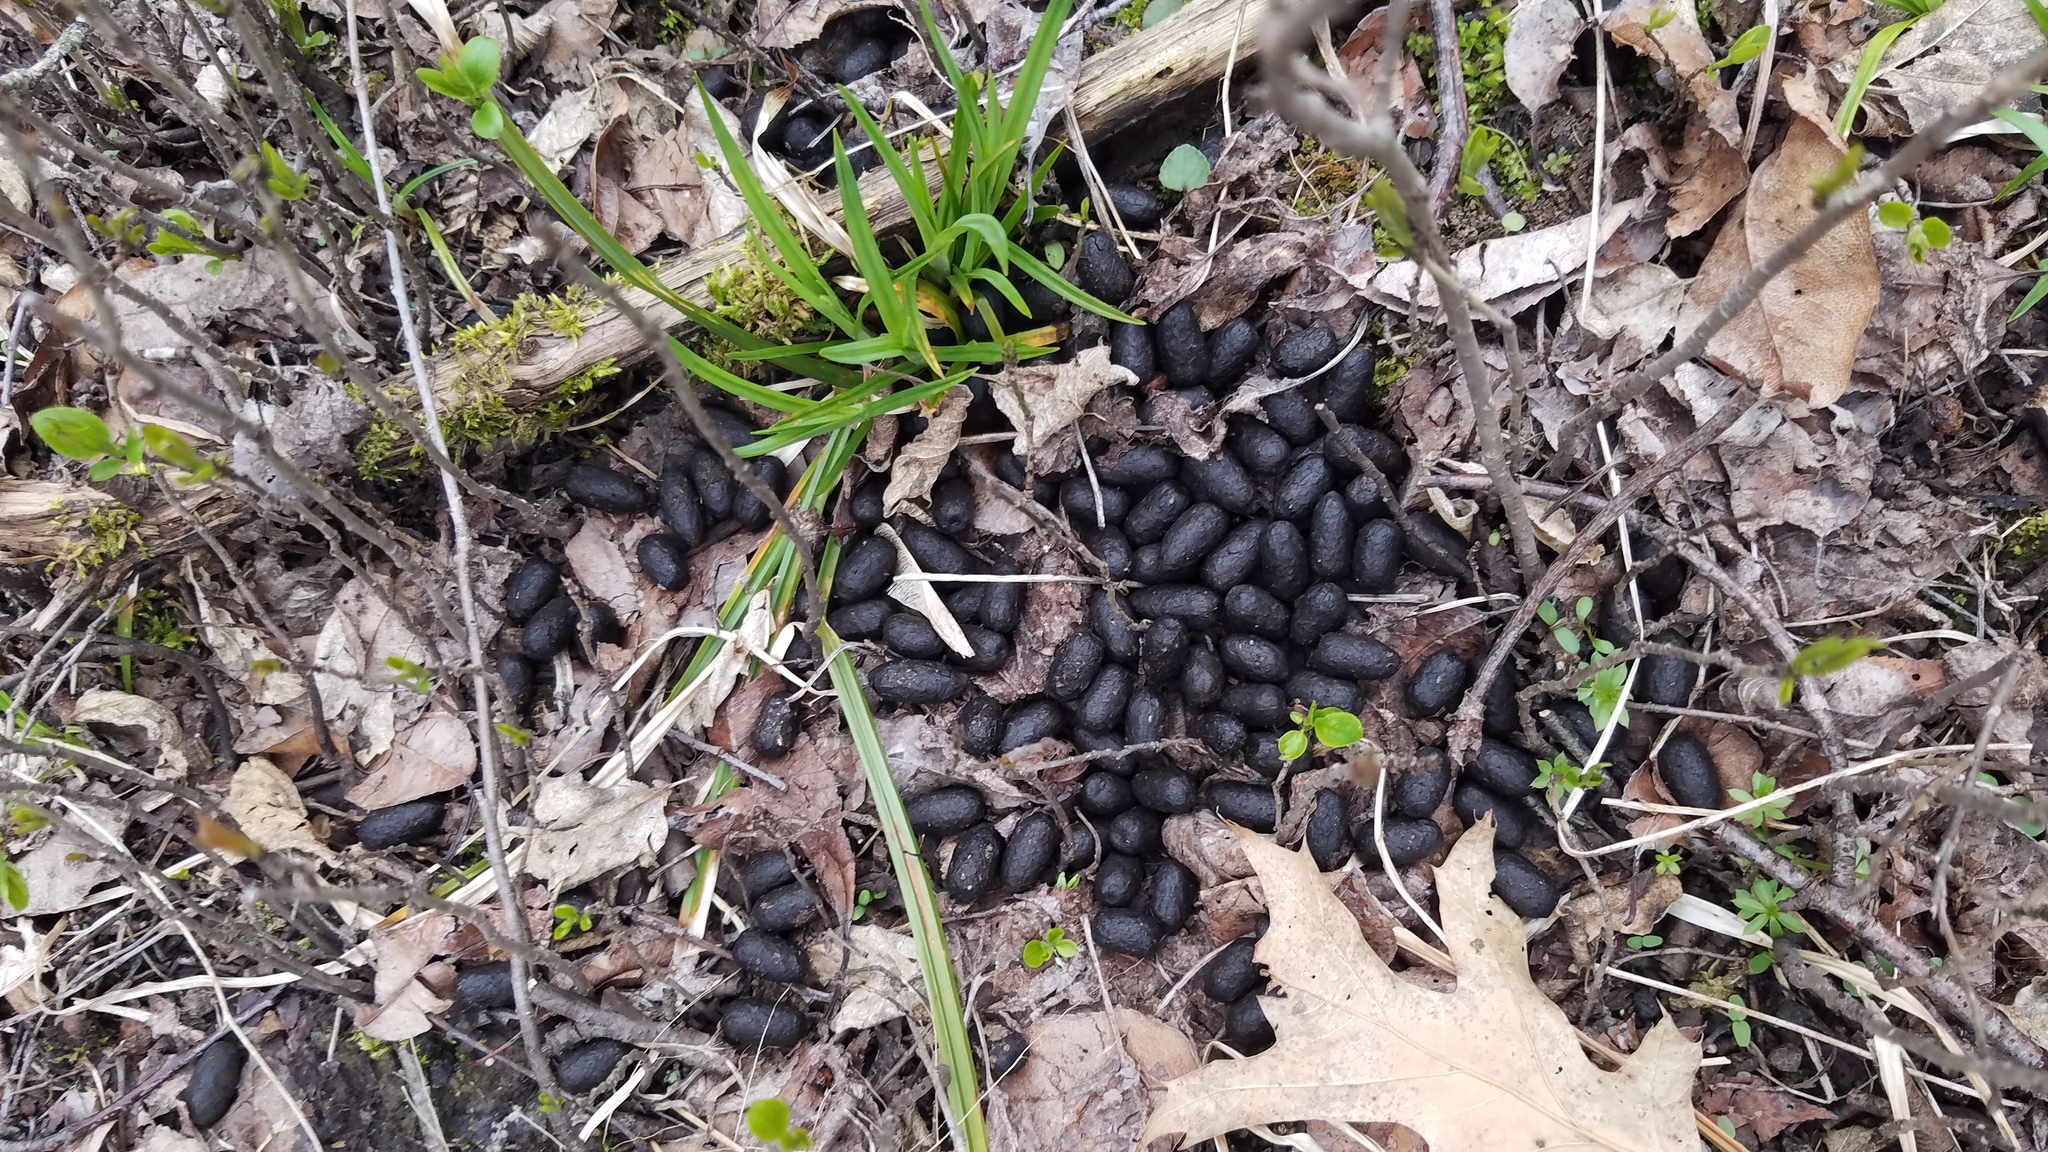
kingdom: Animalia
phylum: Chordata
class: Mammalia
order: Artiodactyla
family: Cervidae
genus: Odocoileus
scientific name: Odocoileus virginianus
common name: White-tailed deer
